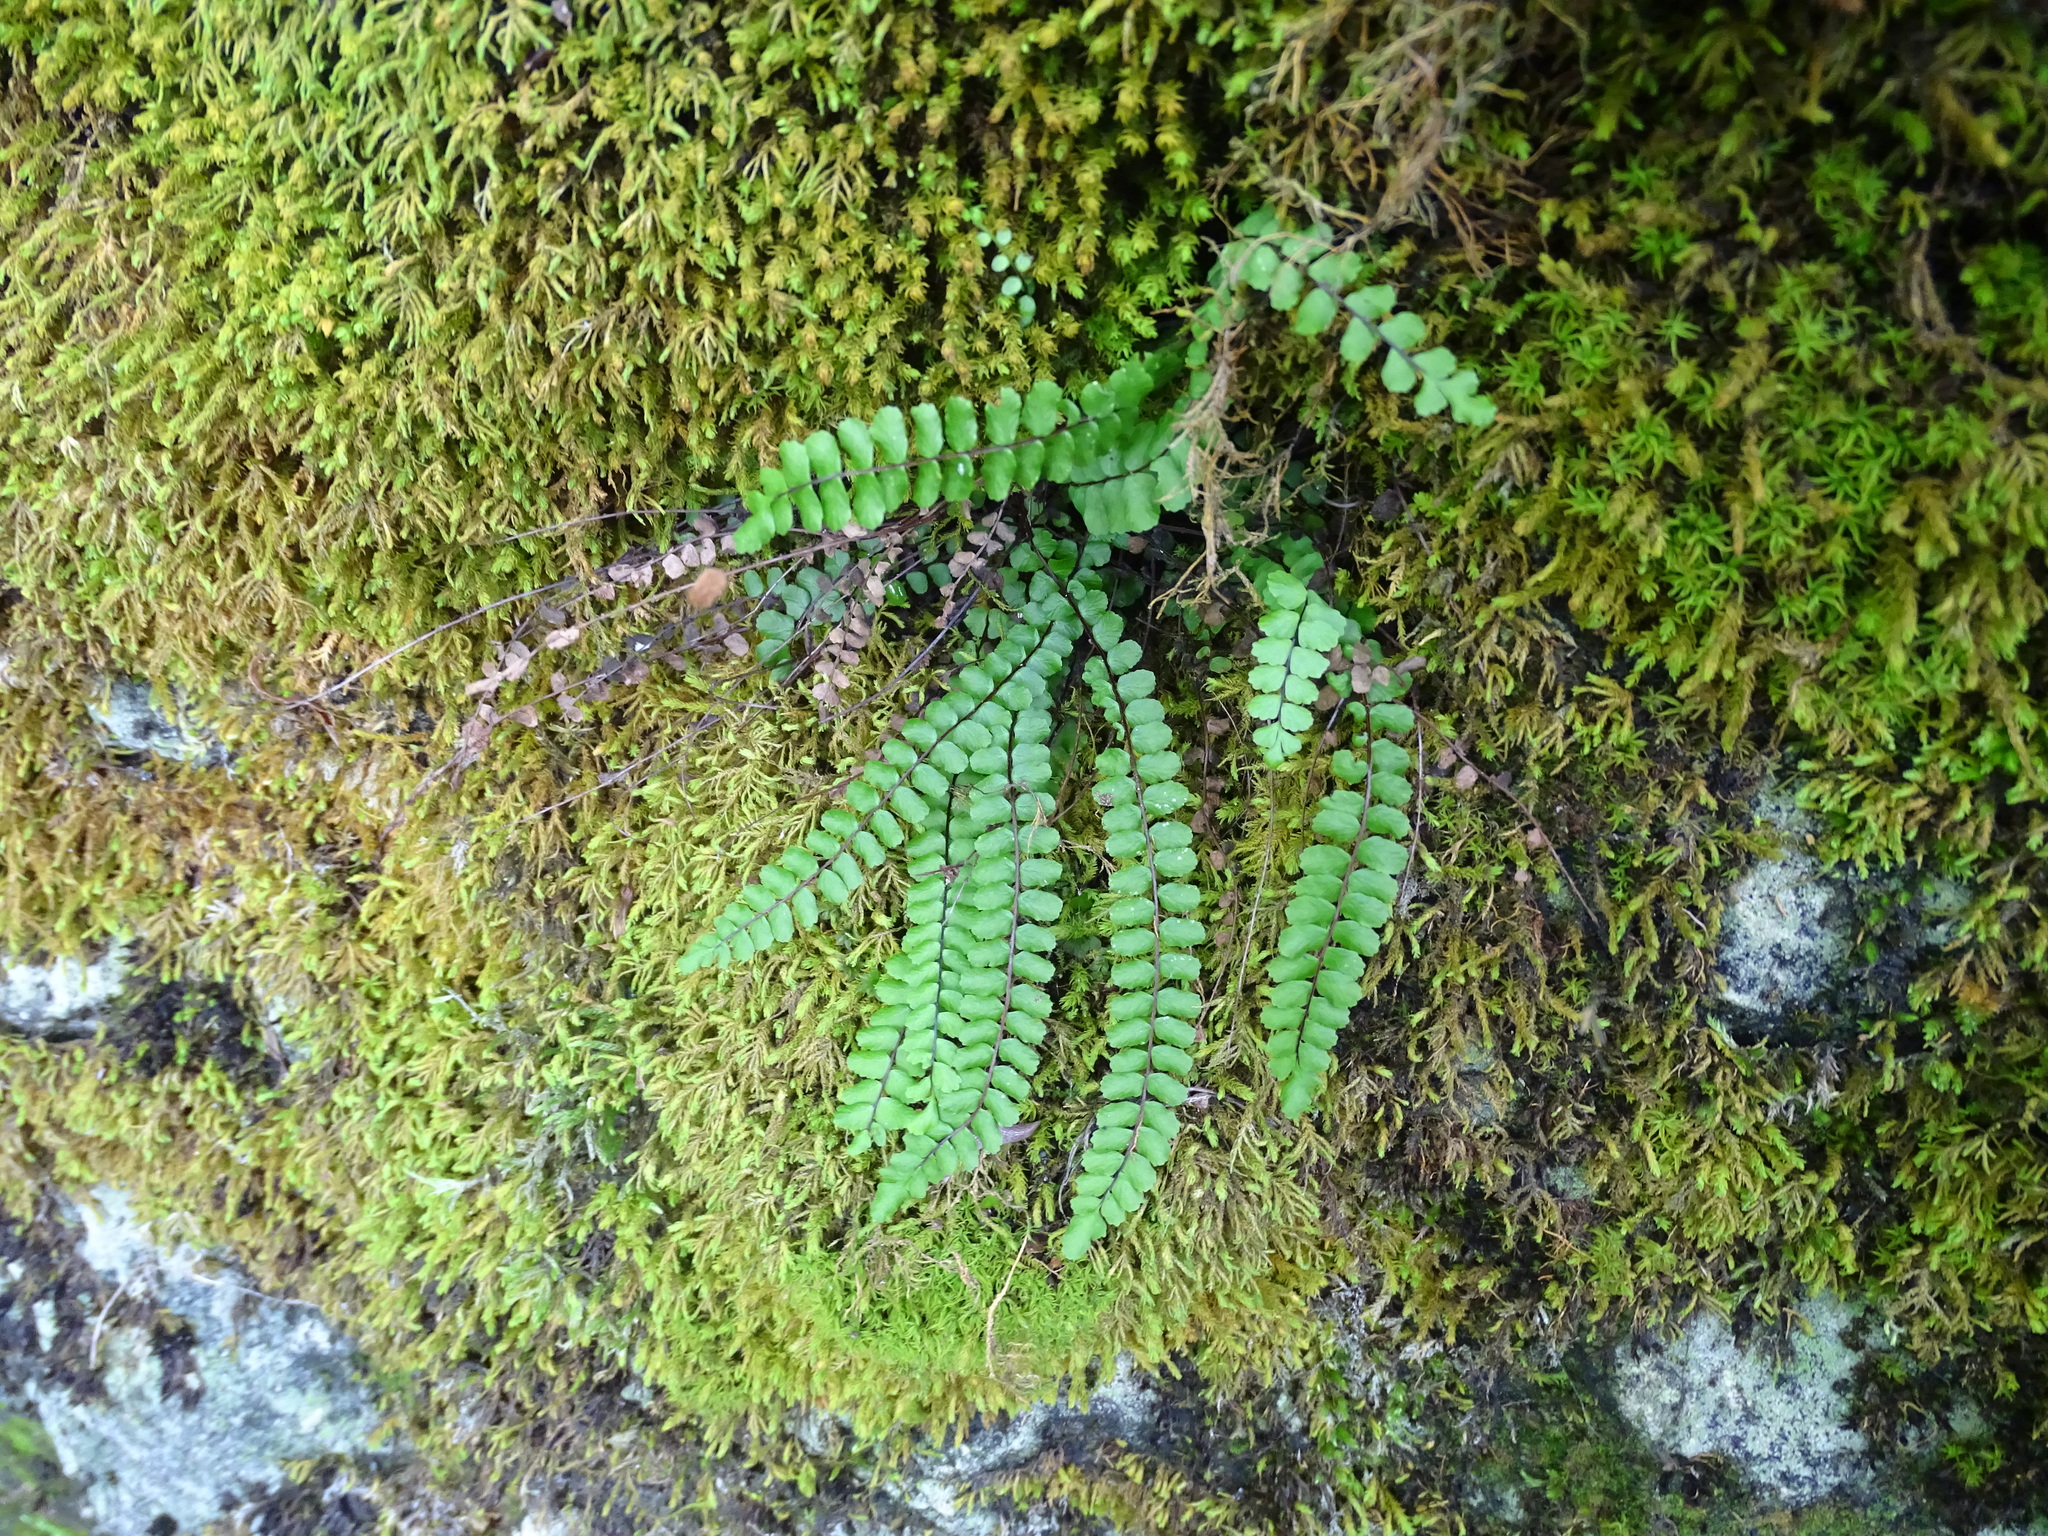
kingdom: Plantae
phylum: Tracheophyta
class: Polypodiopsida
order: Polypodiales
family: Aspleniaceae
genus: Asplenium
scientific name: Asplenium trichomanes
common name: Maidenhair spleenwort
